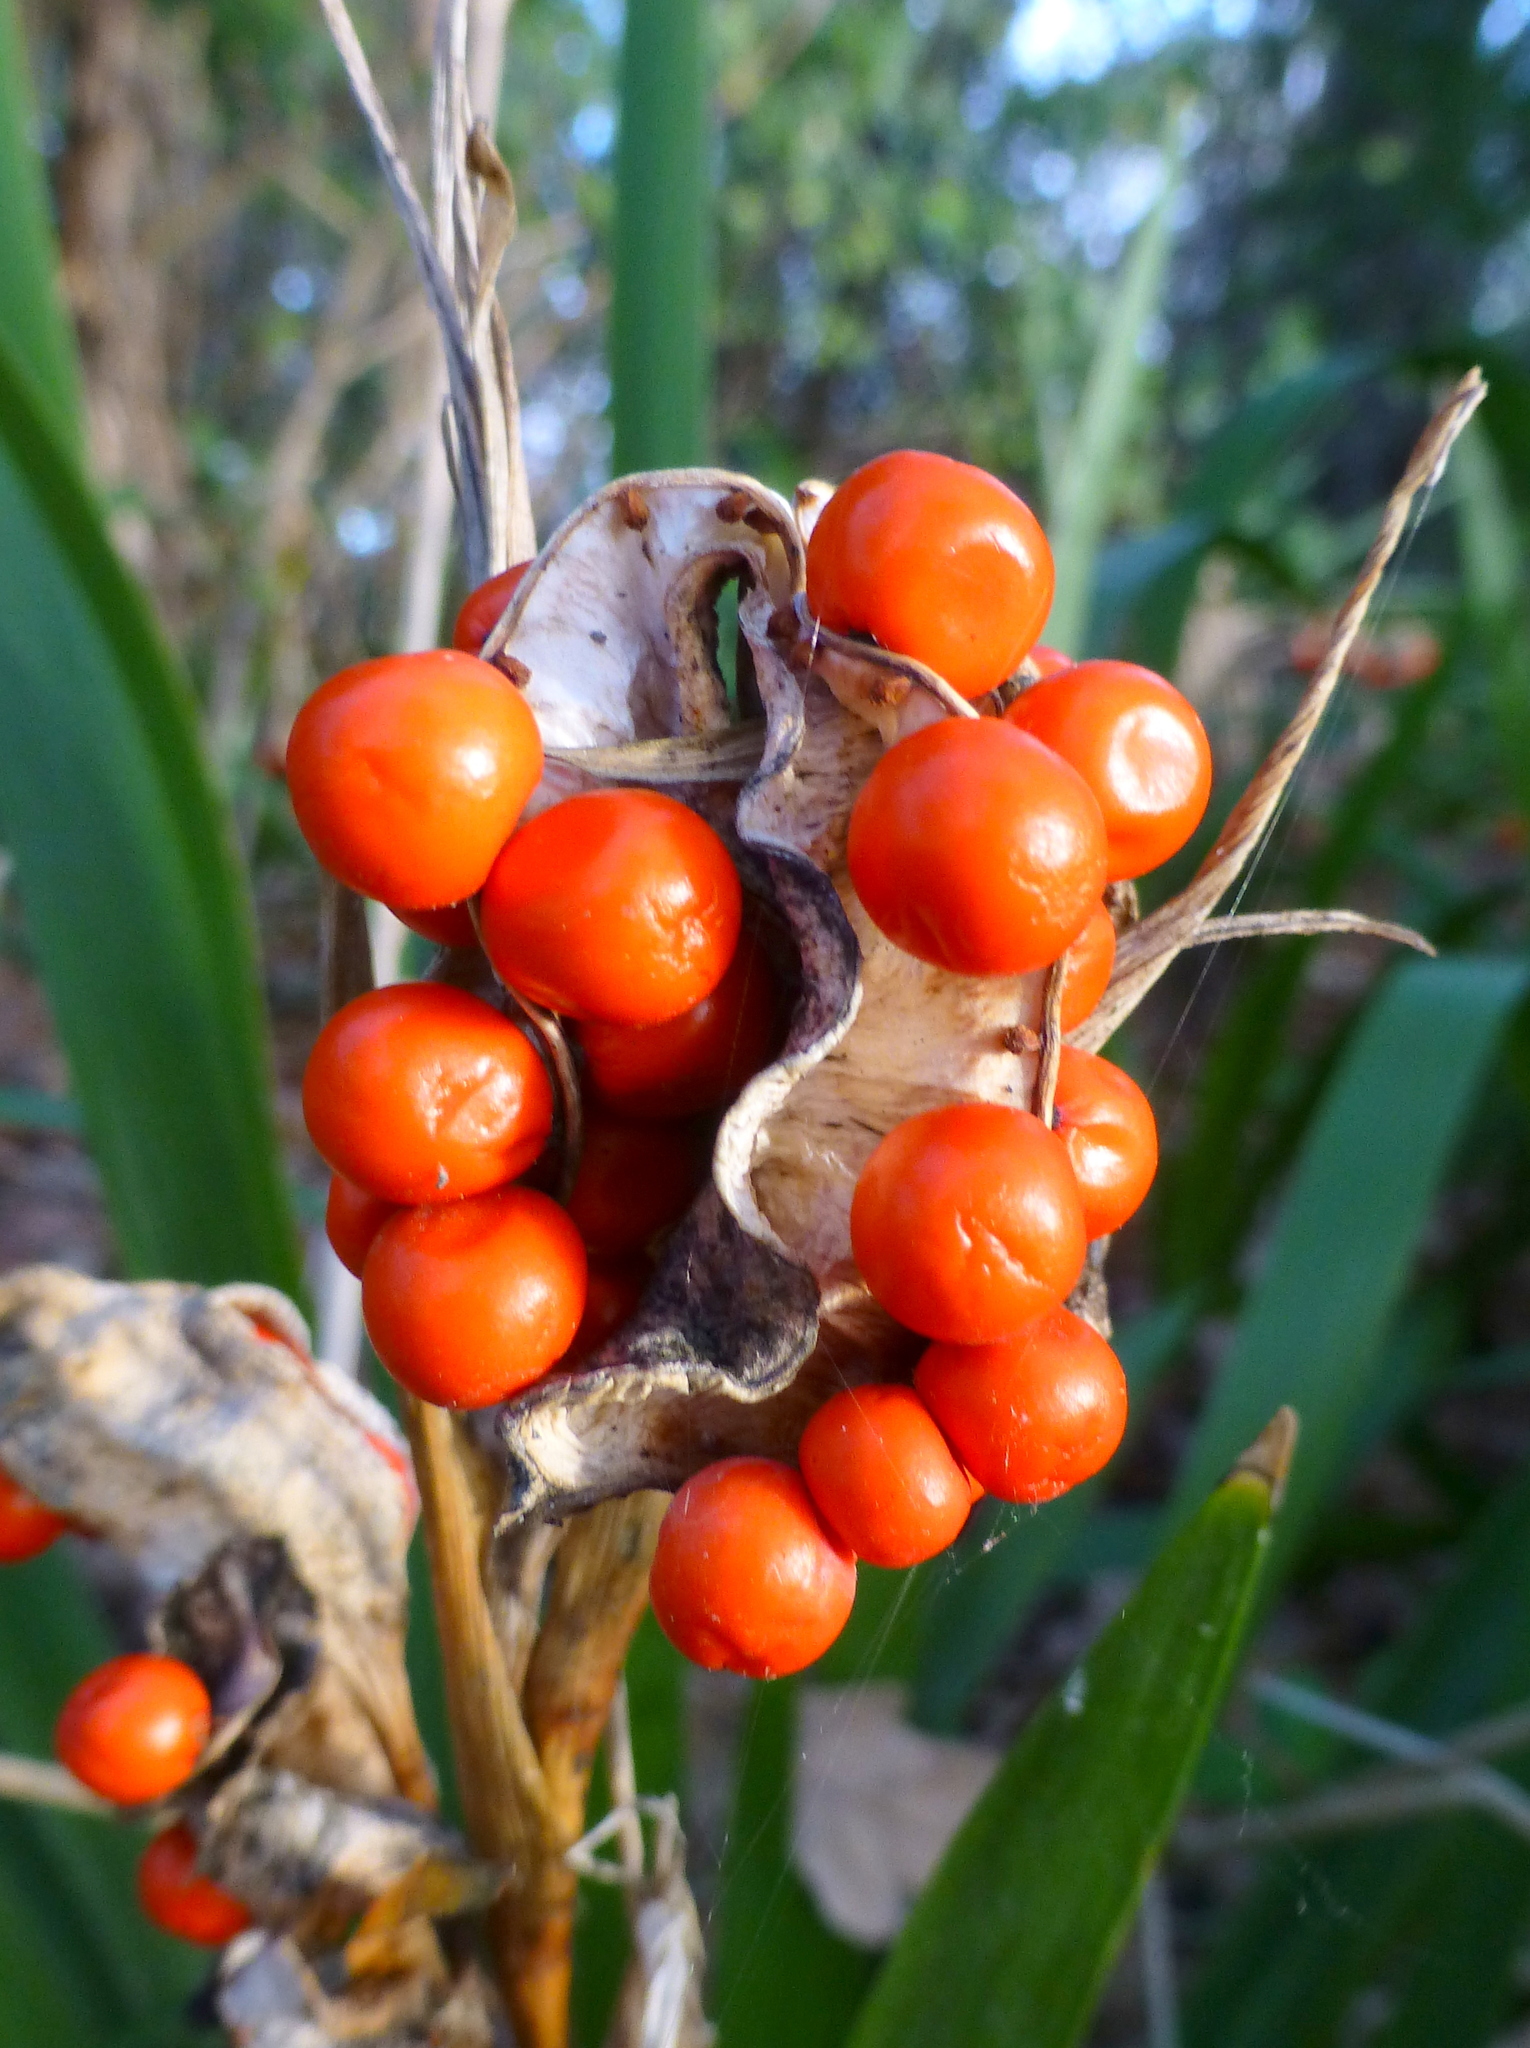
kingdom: Plantae
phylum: Tracheophyta
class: Liliopsida
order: Asparagales
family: Iridaceae
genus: Iris
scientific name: Iris foetidissima
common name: Stinking iris
